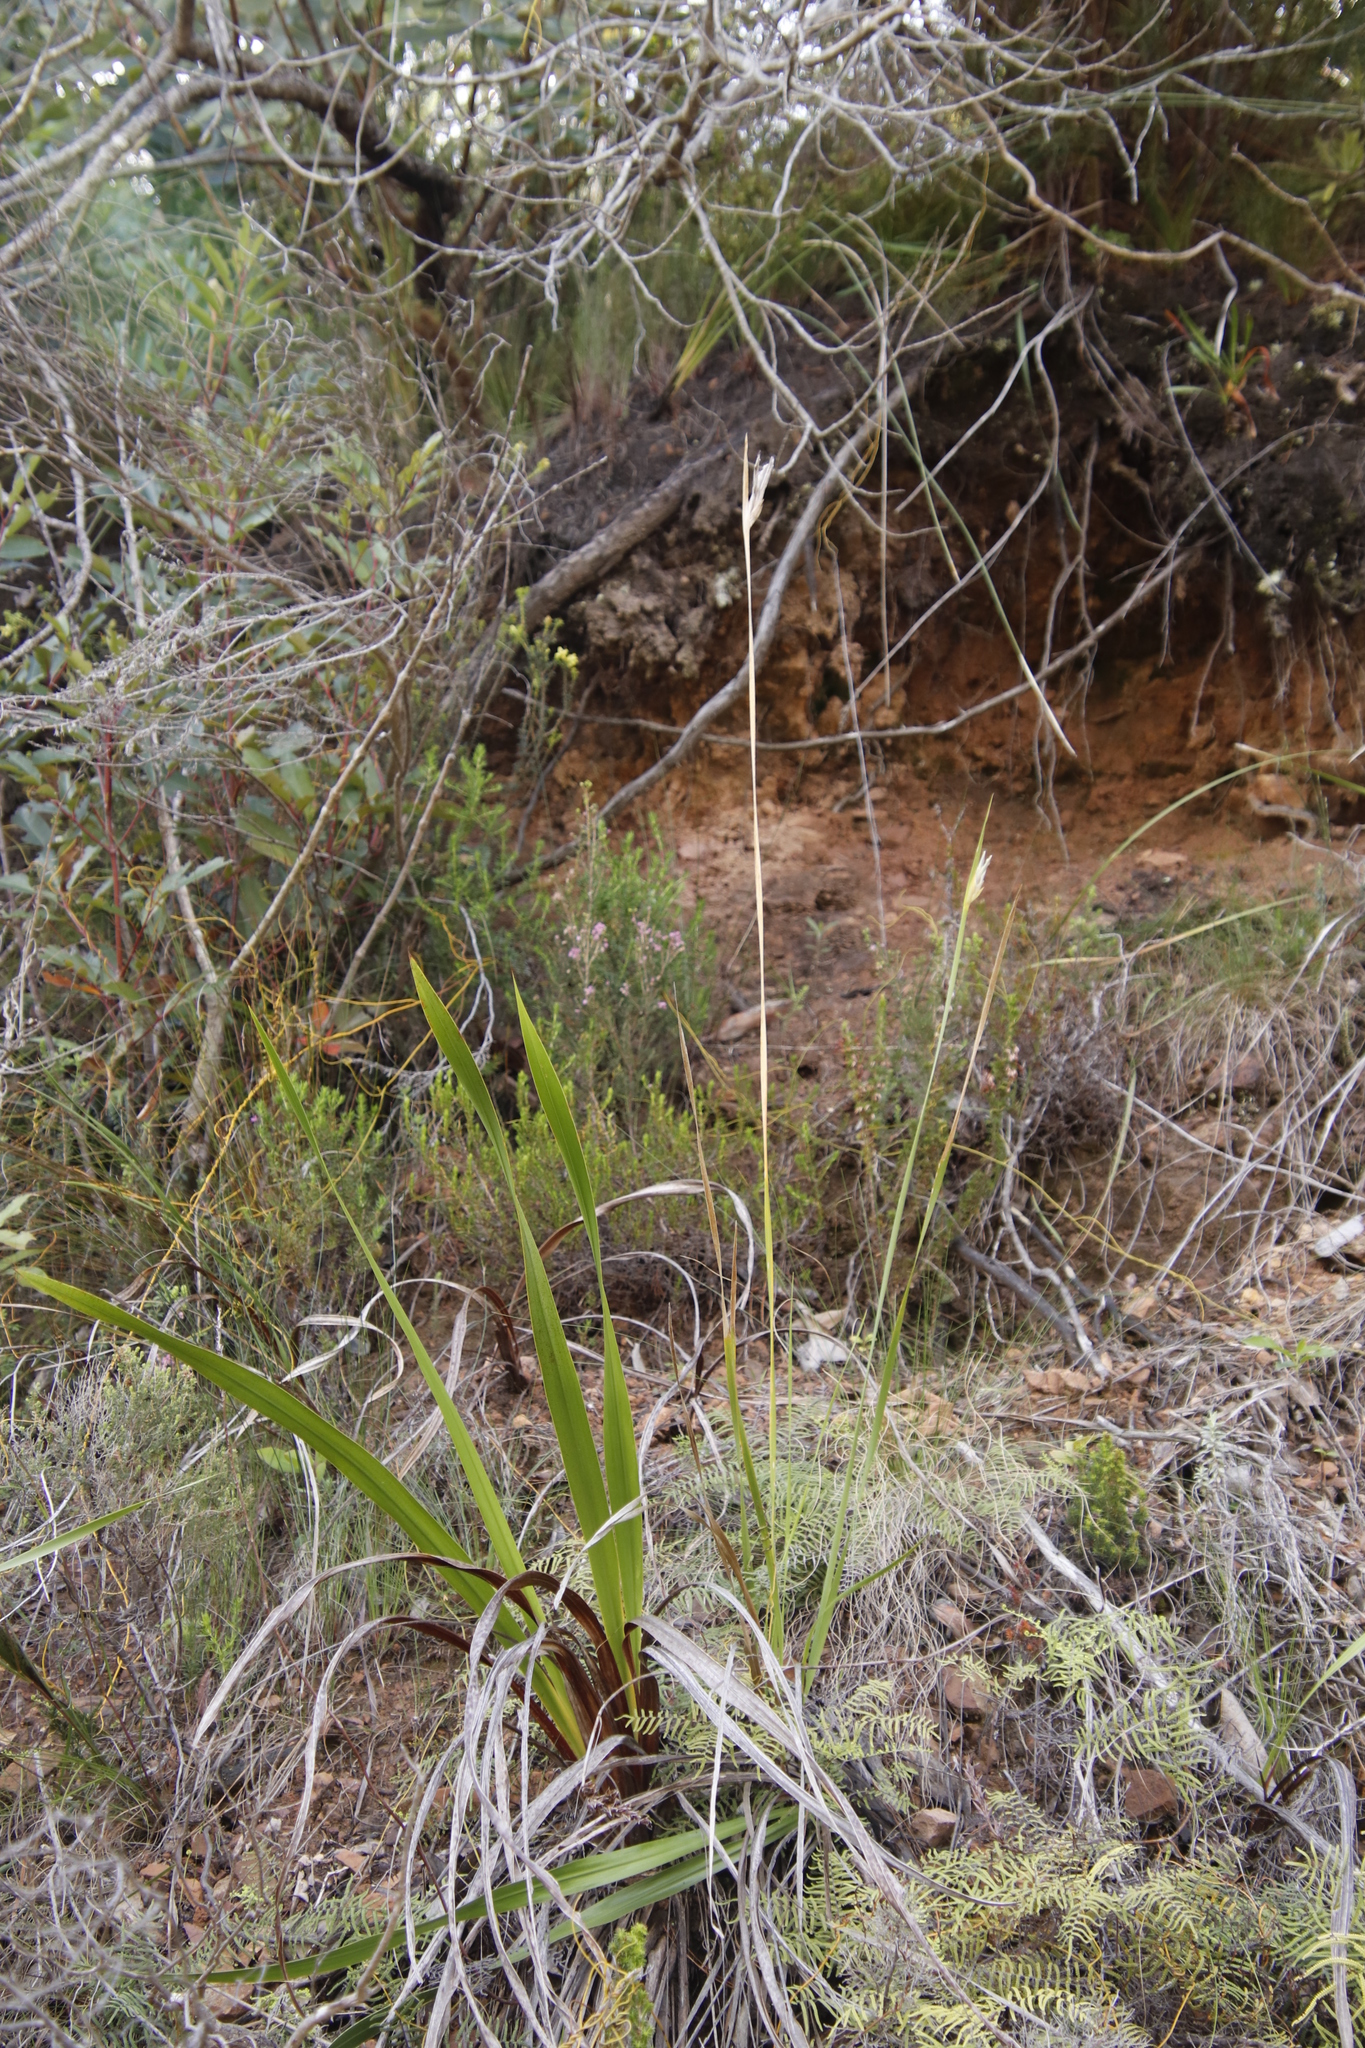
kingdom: Plantae
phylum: Tracheophyta
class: Liliopsida
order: Asparagales
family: Iridaceae
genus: Bobartia
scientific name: Bobartia gladiata
